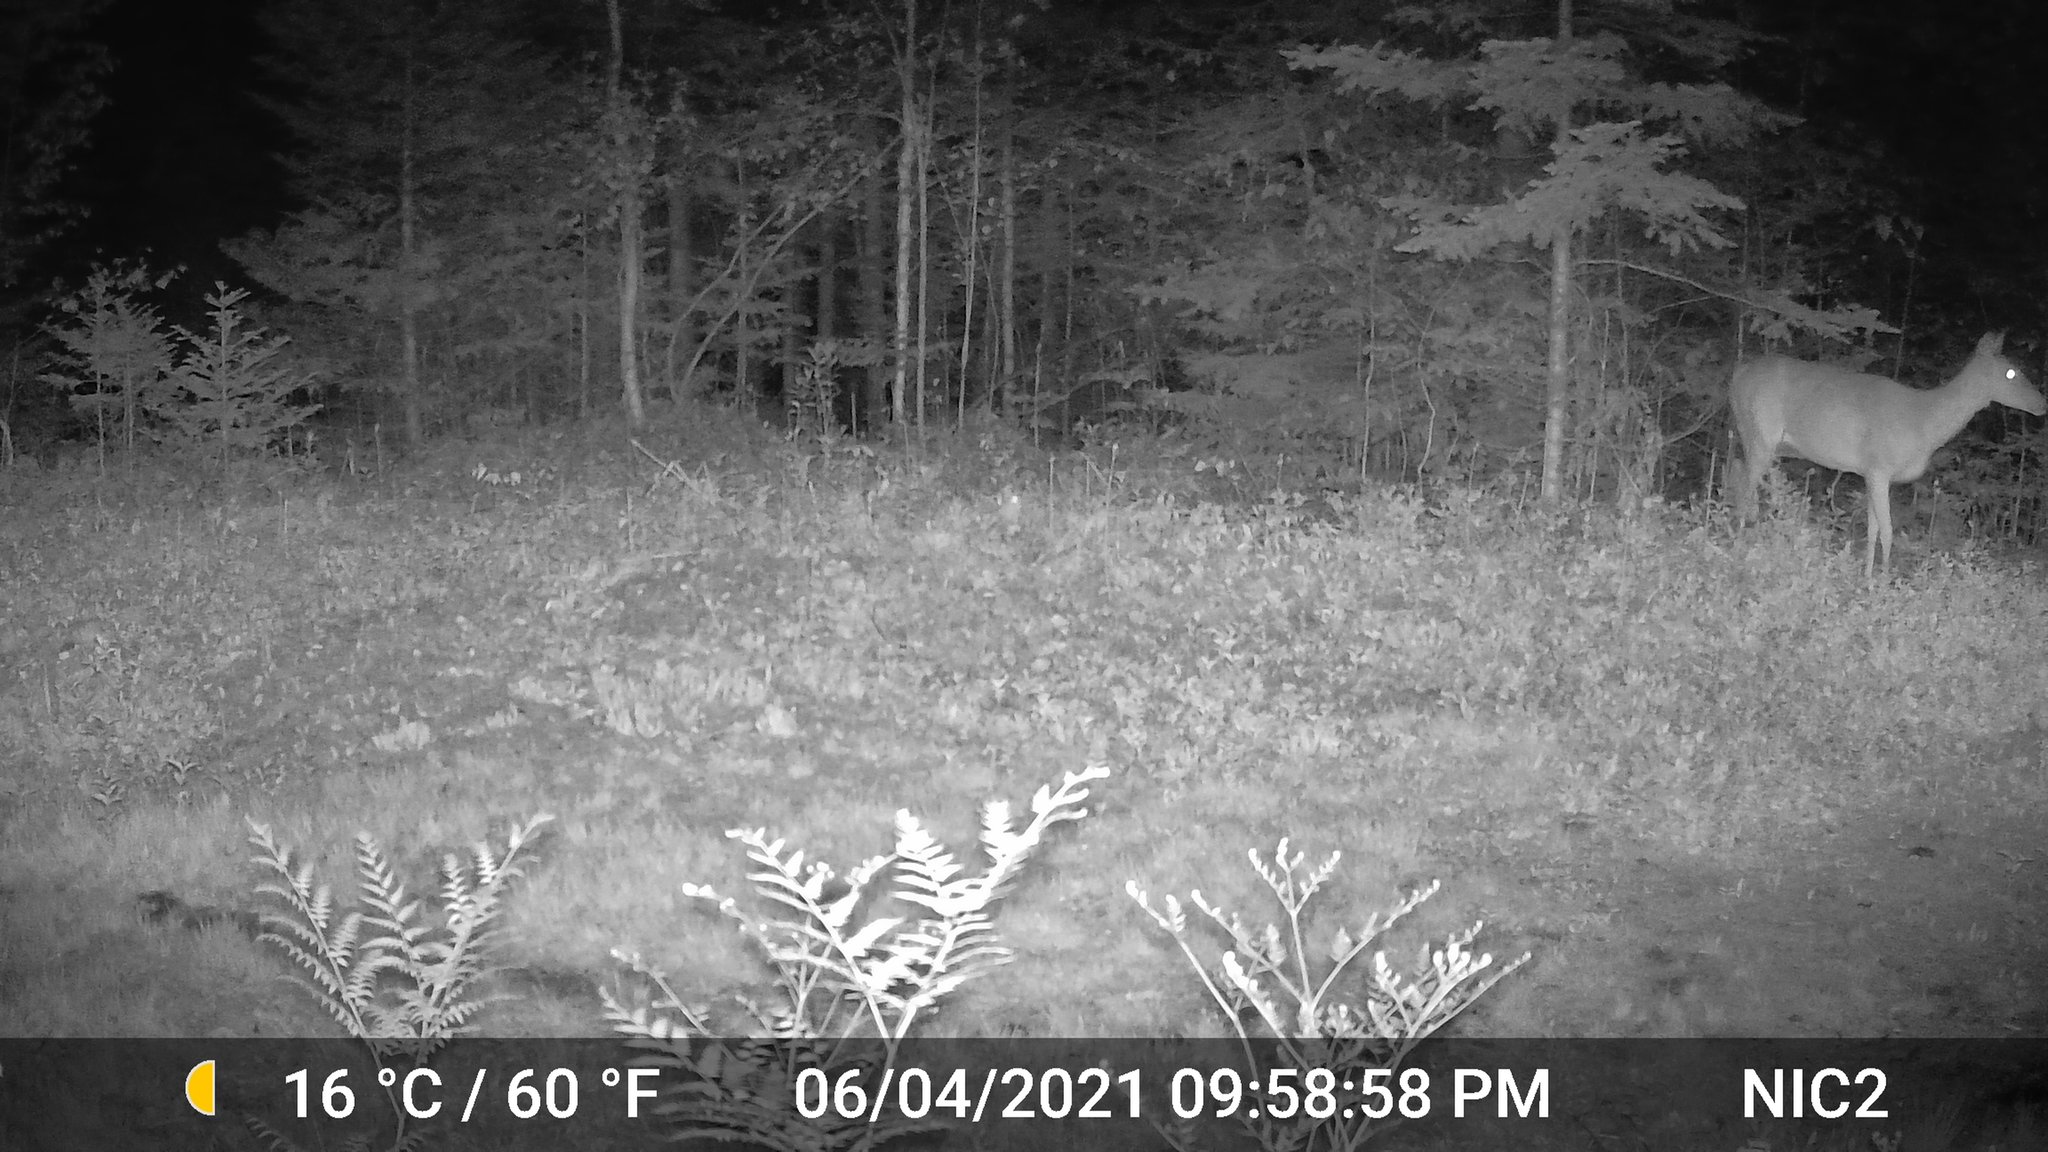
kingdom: Animalia
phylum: Chordata
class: Mammalia
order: Artiodactyla
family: Cervidae
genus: Odocoileus
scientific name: Odocoileus virginianus
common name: White-tailed deer
